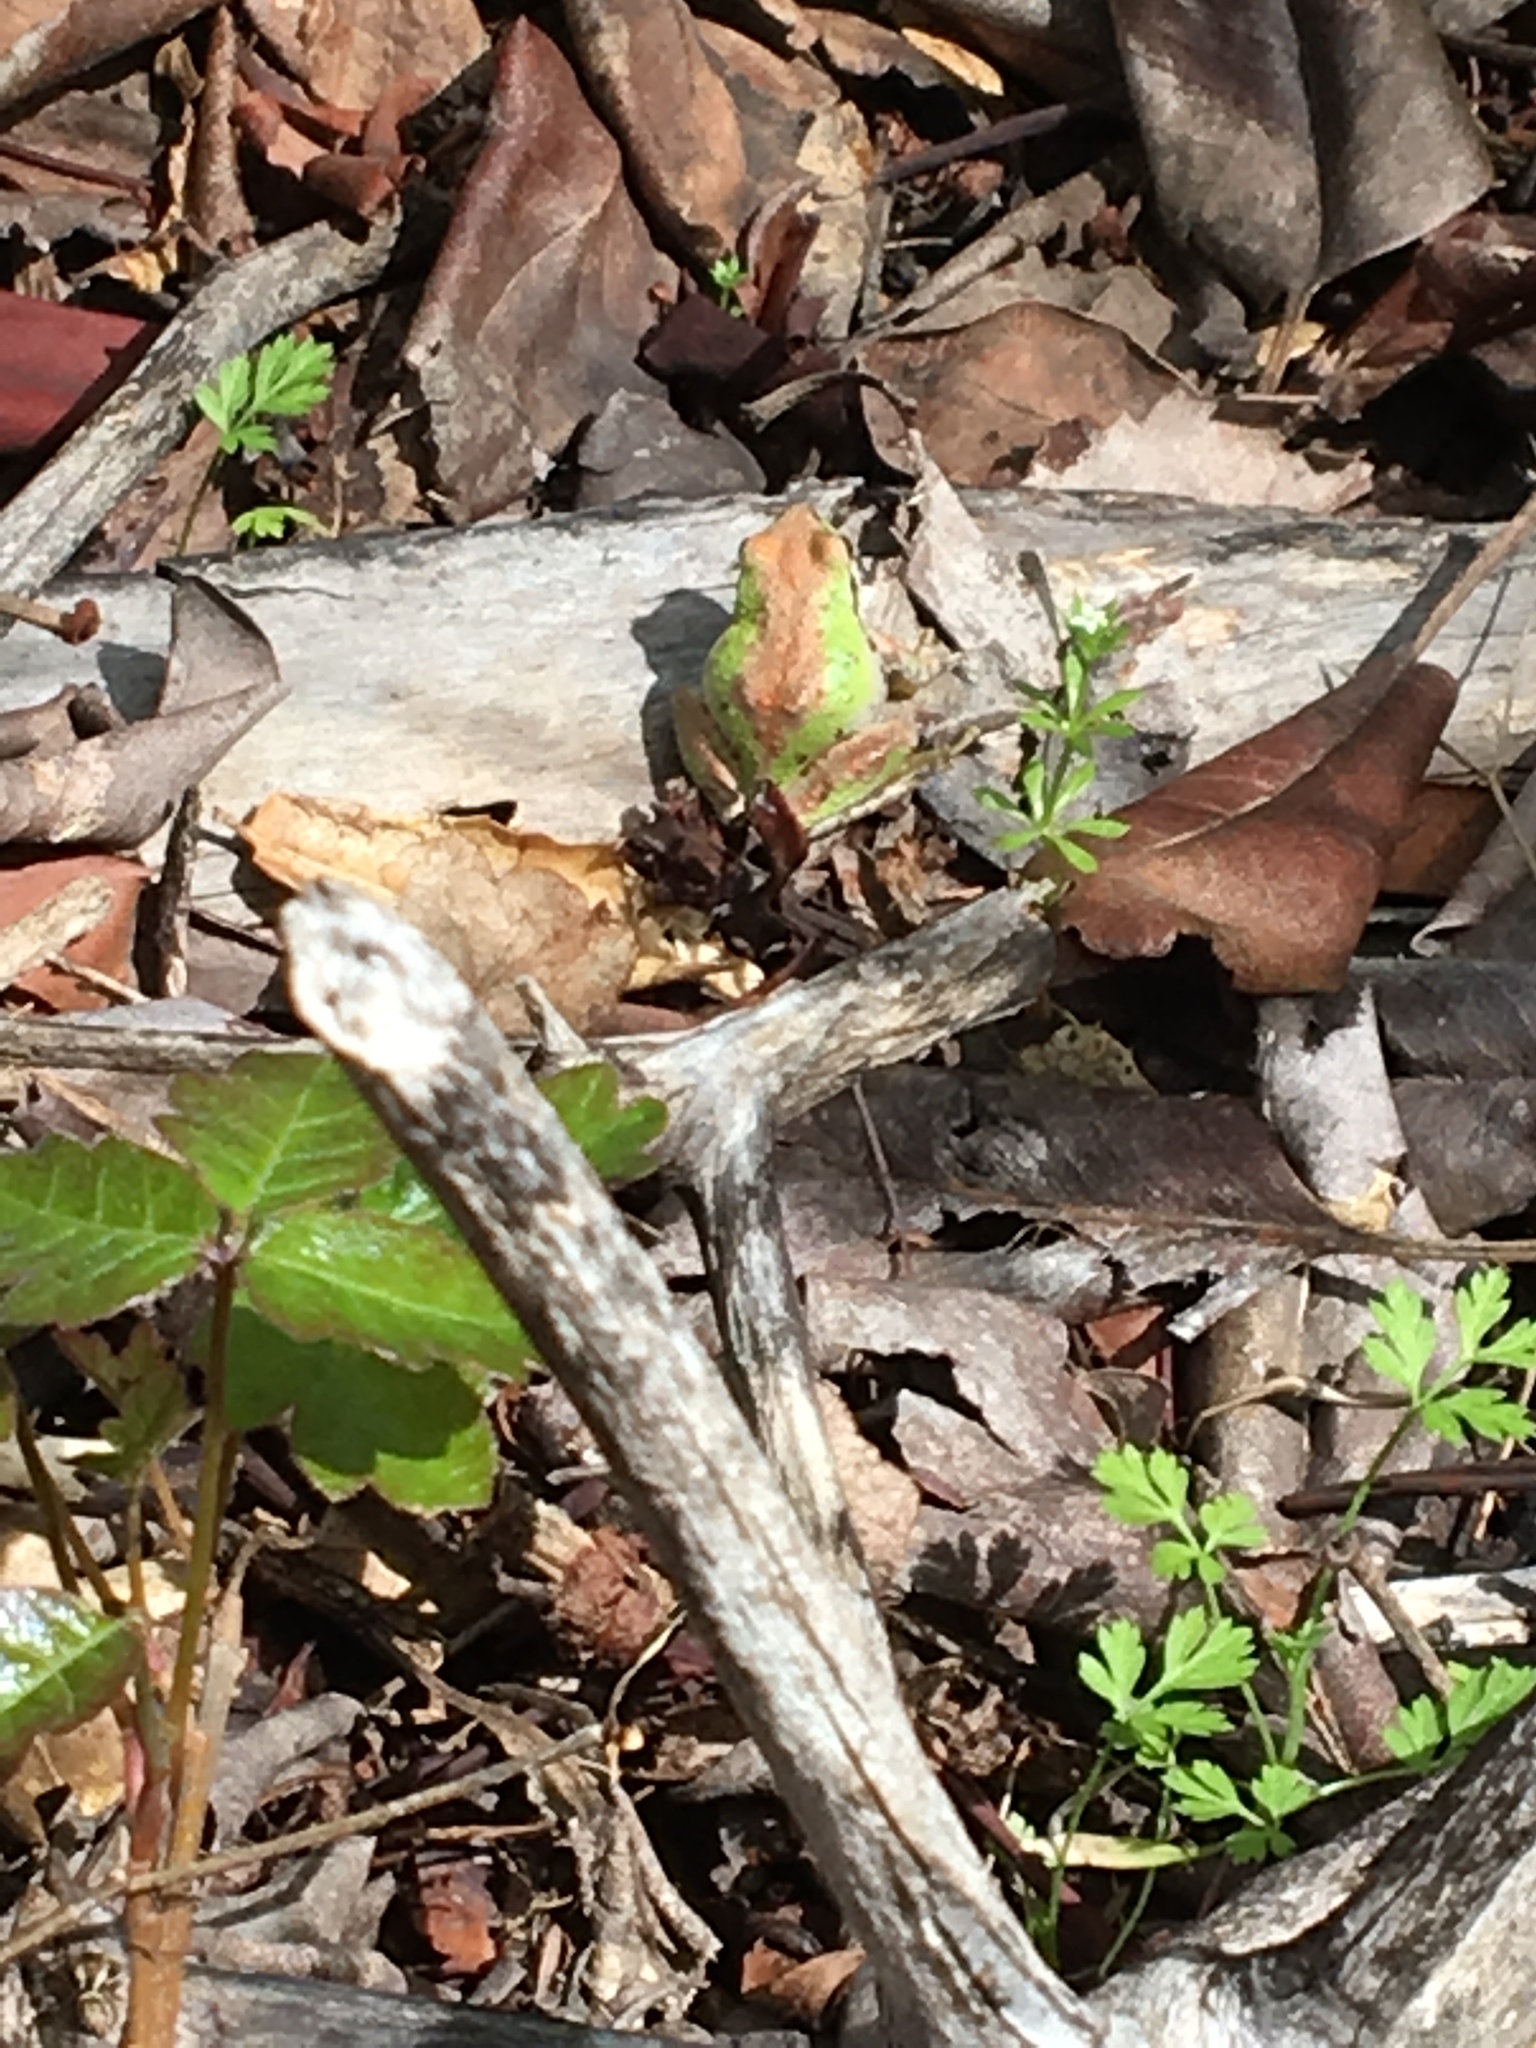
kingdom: Animalia
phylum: Chordata
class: Amphibia
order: Anura
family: Hylidae
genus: Pseudacris
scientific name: Pseudacris regilla
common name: Pacific chorus frog
